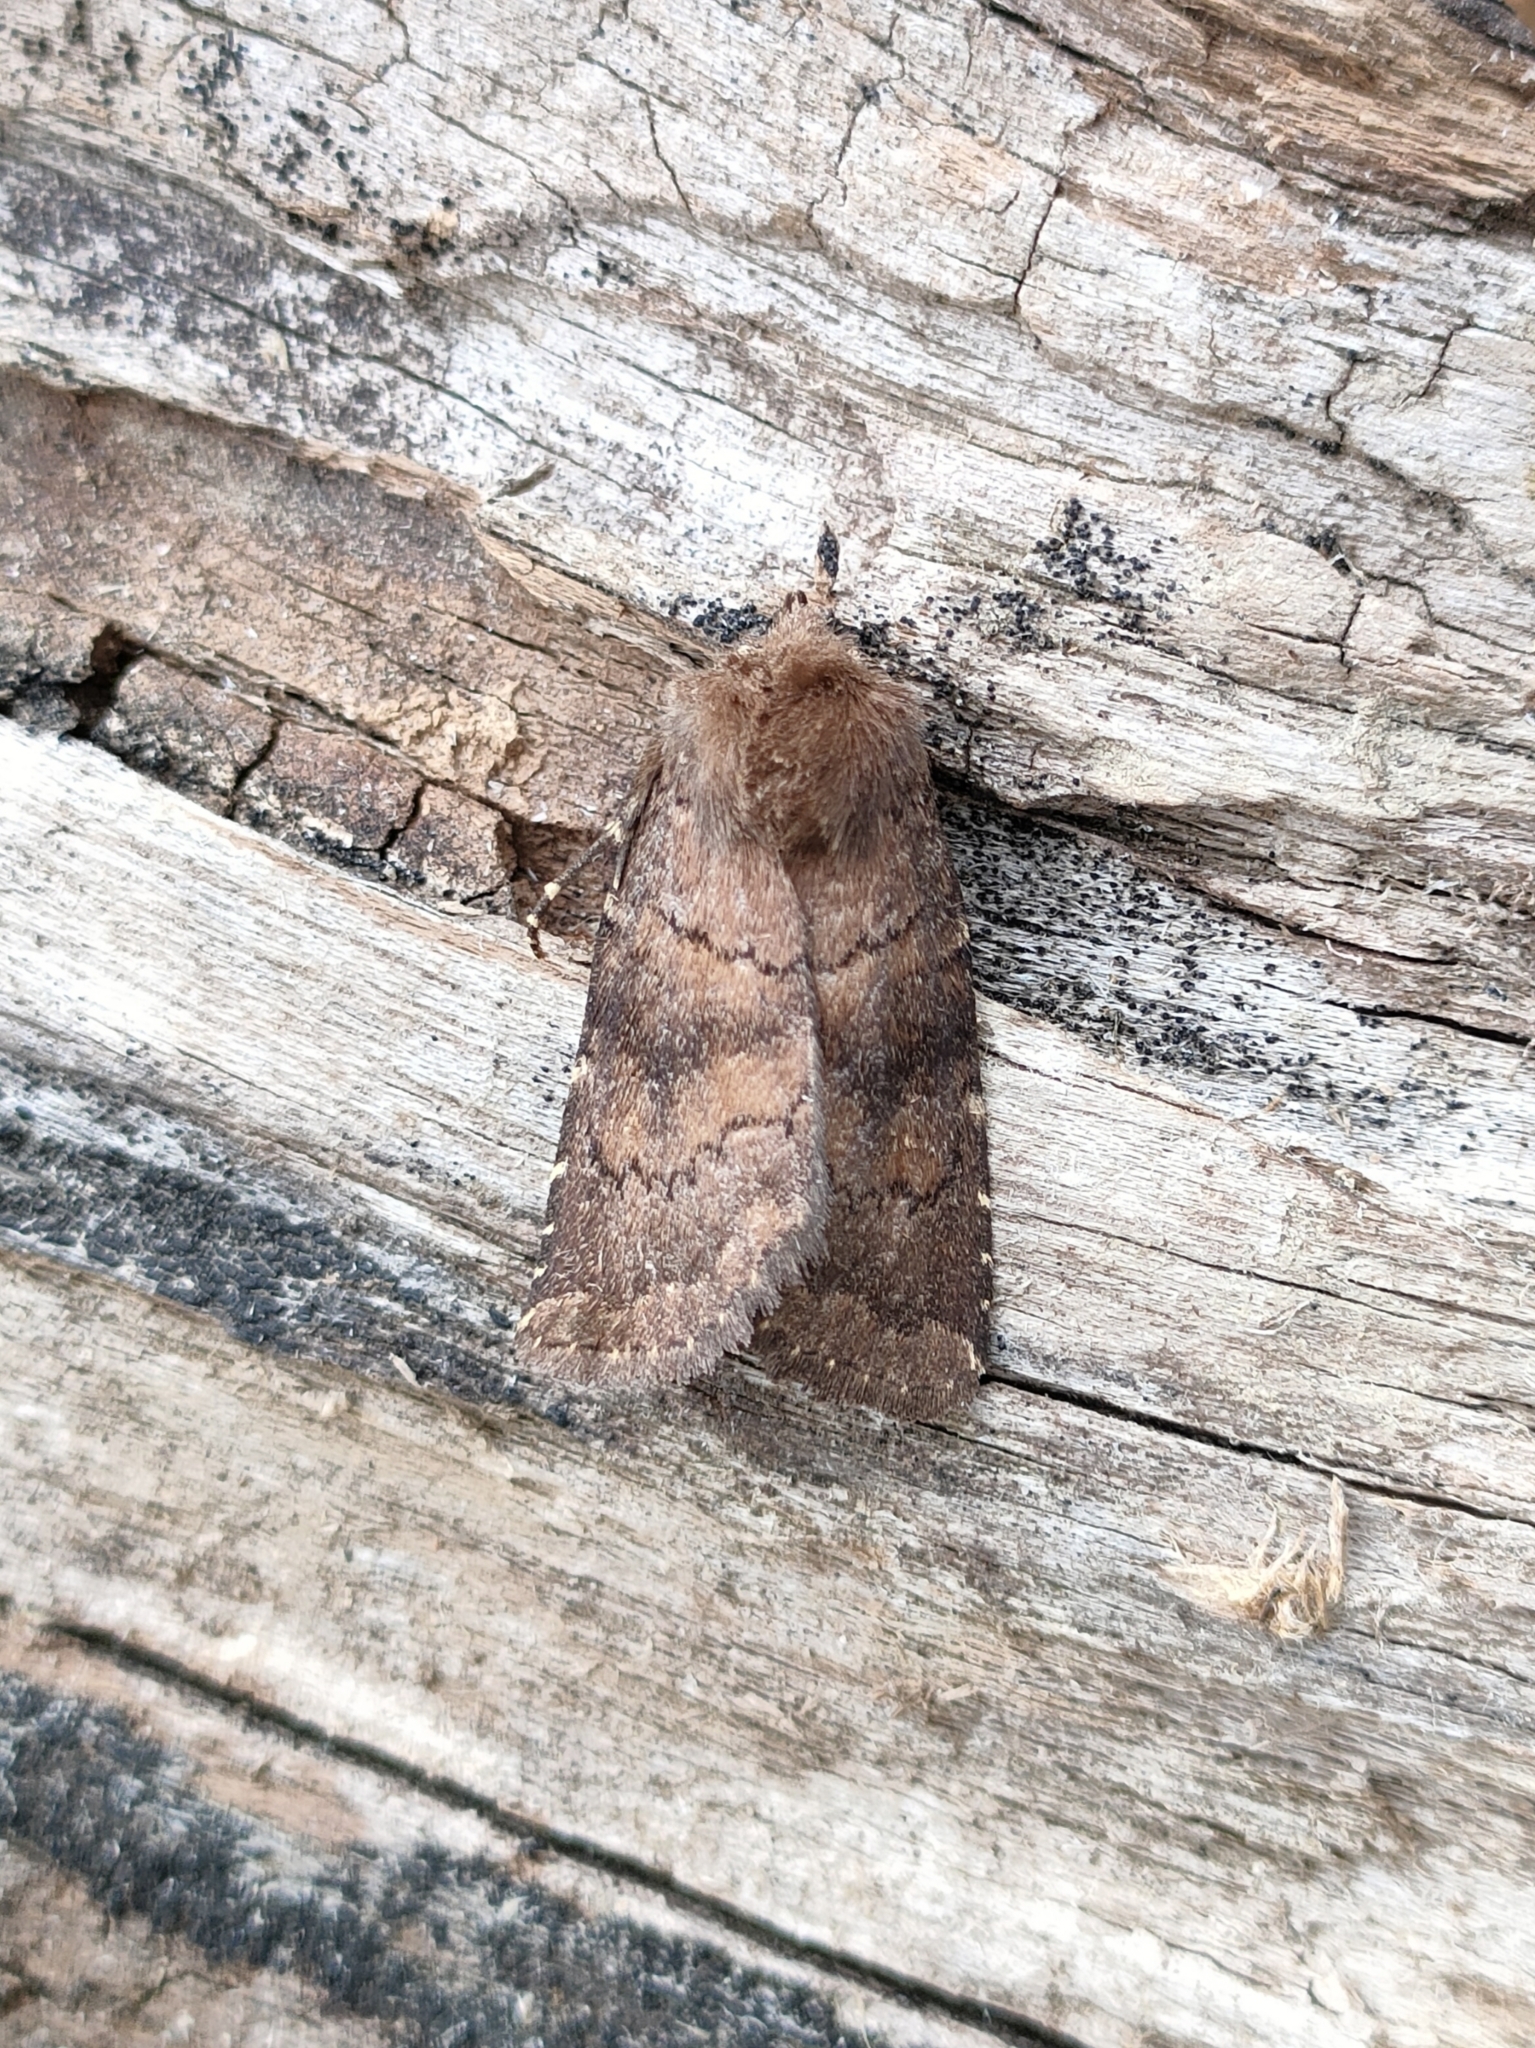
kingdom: Animalia
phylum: Arthropoda
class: Insecta
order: Lepidoptera
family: Noctuidae
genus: Charanyca
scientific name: Charanyca ferruginea
